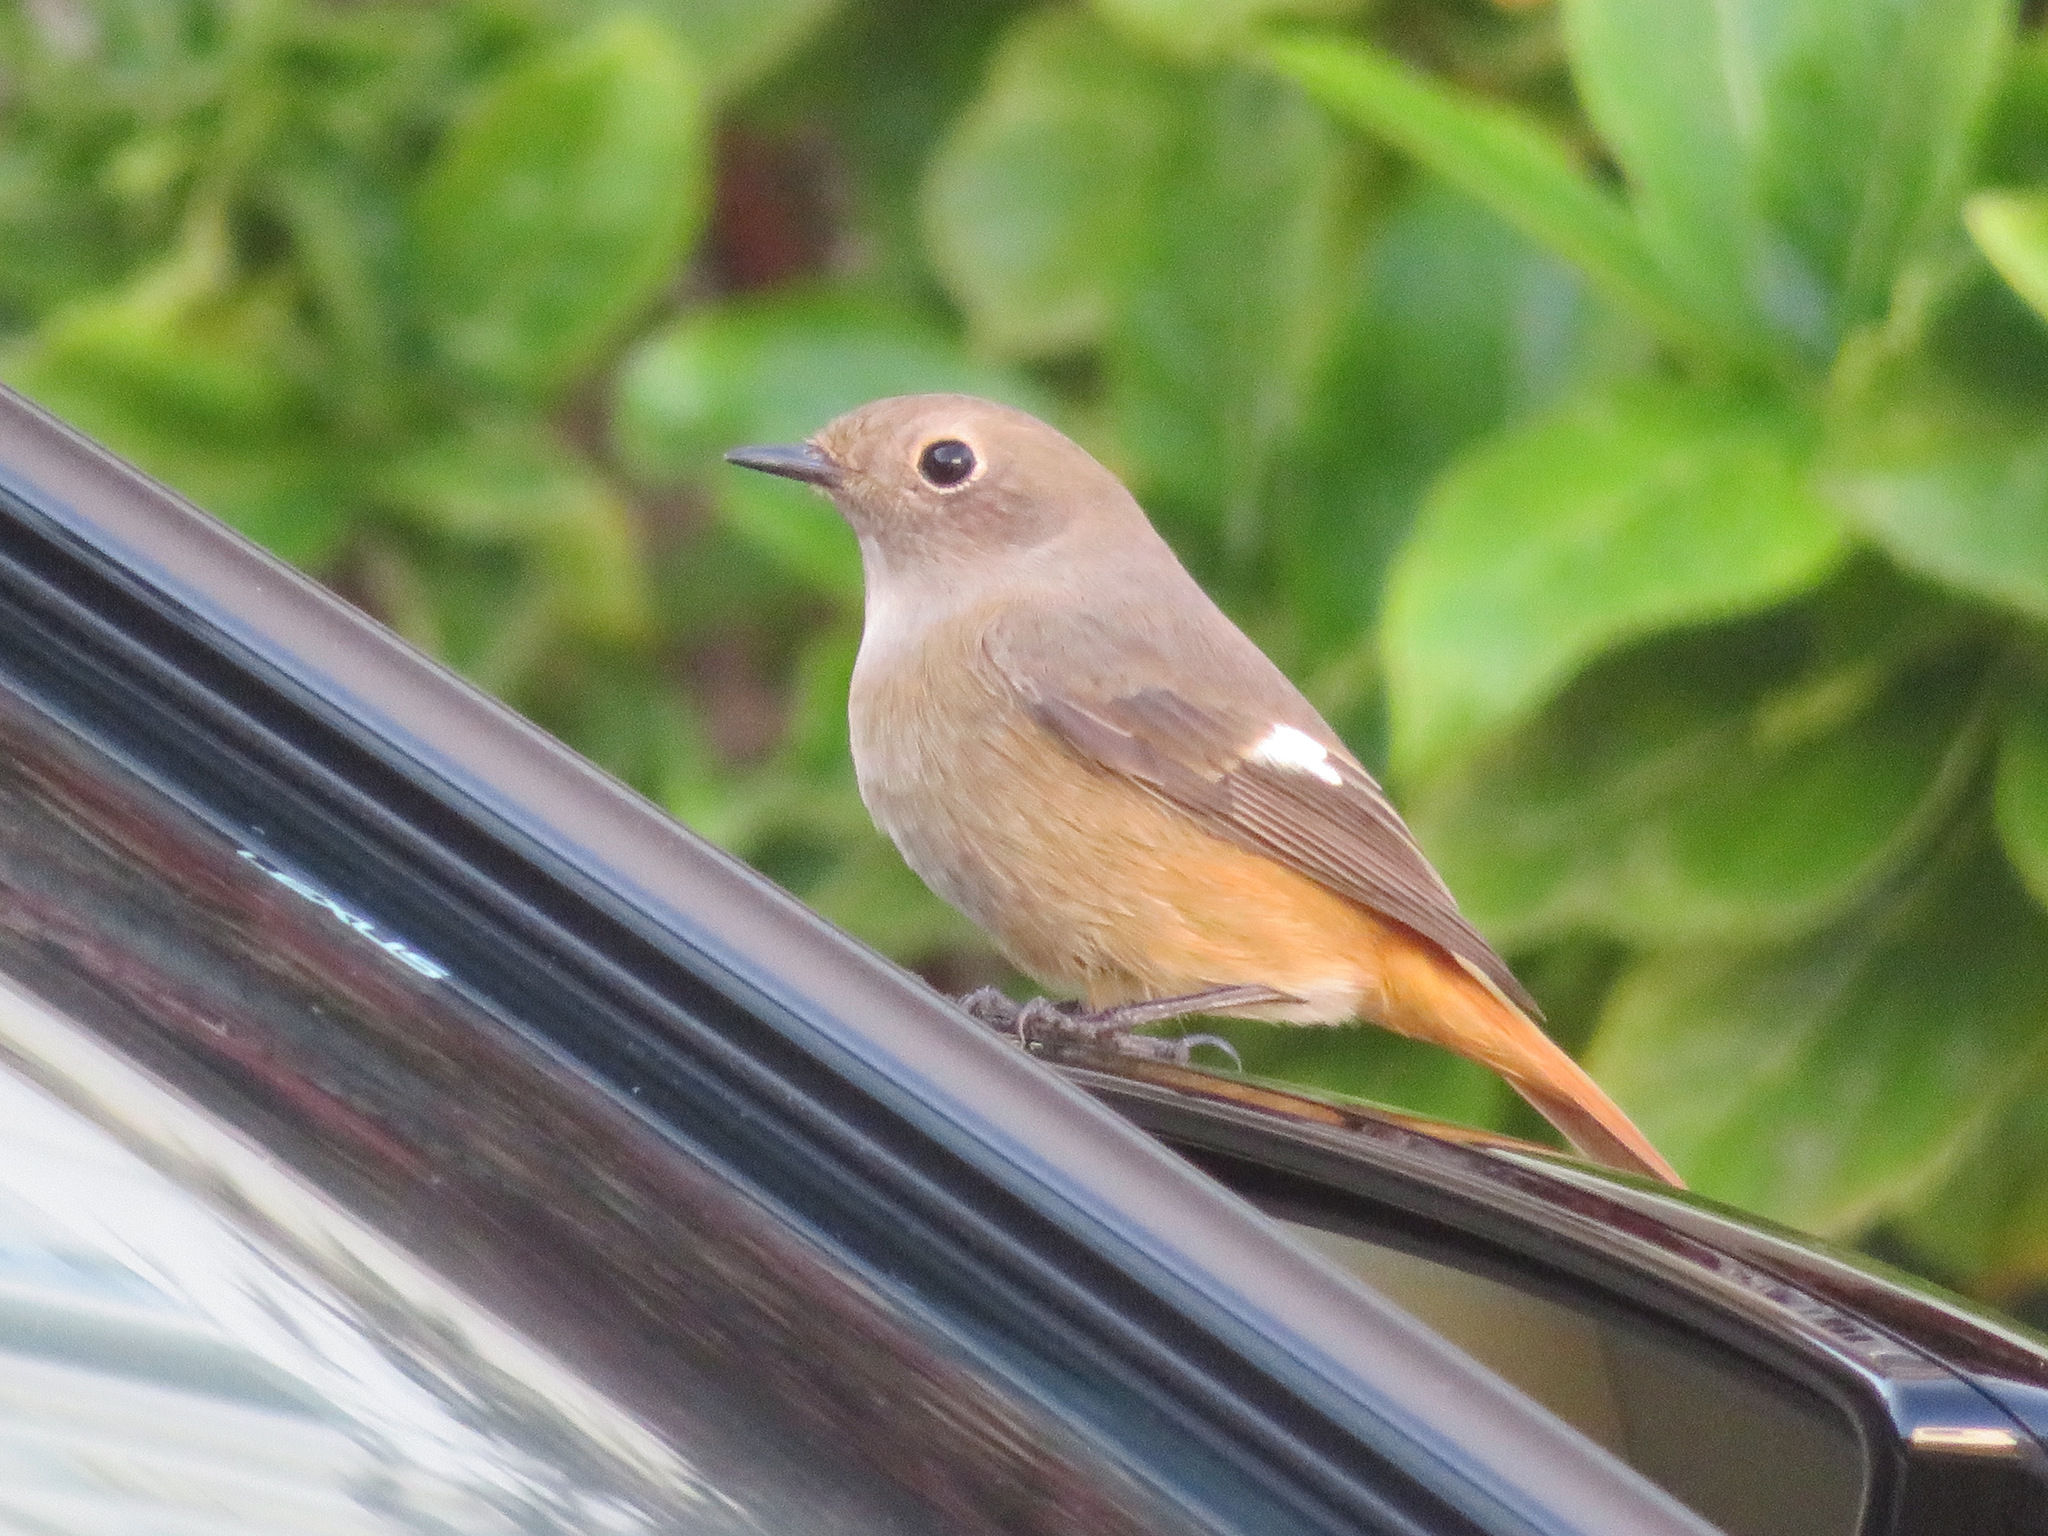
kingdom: Animalia
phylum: Chordata
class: Aves
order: Passeriformes
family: Muscicapidae
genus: Phoenicurus
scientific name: Phoenicurus auroreus
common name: Daurian redstart
